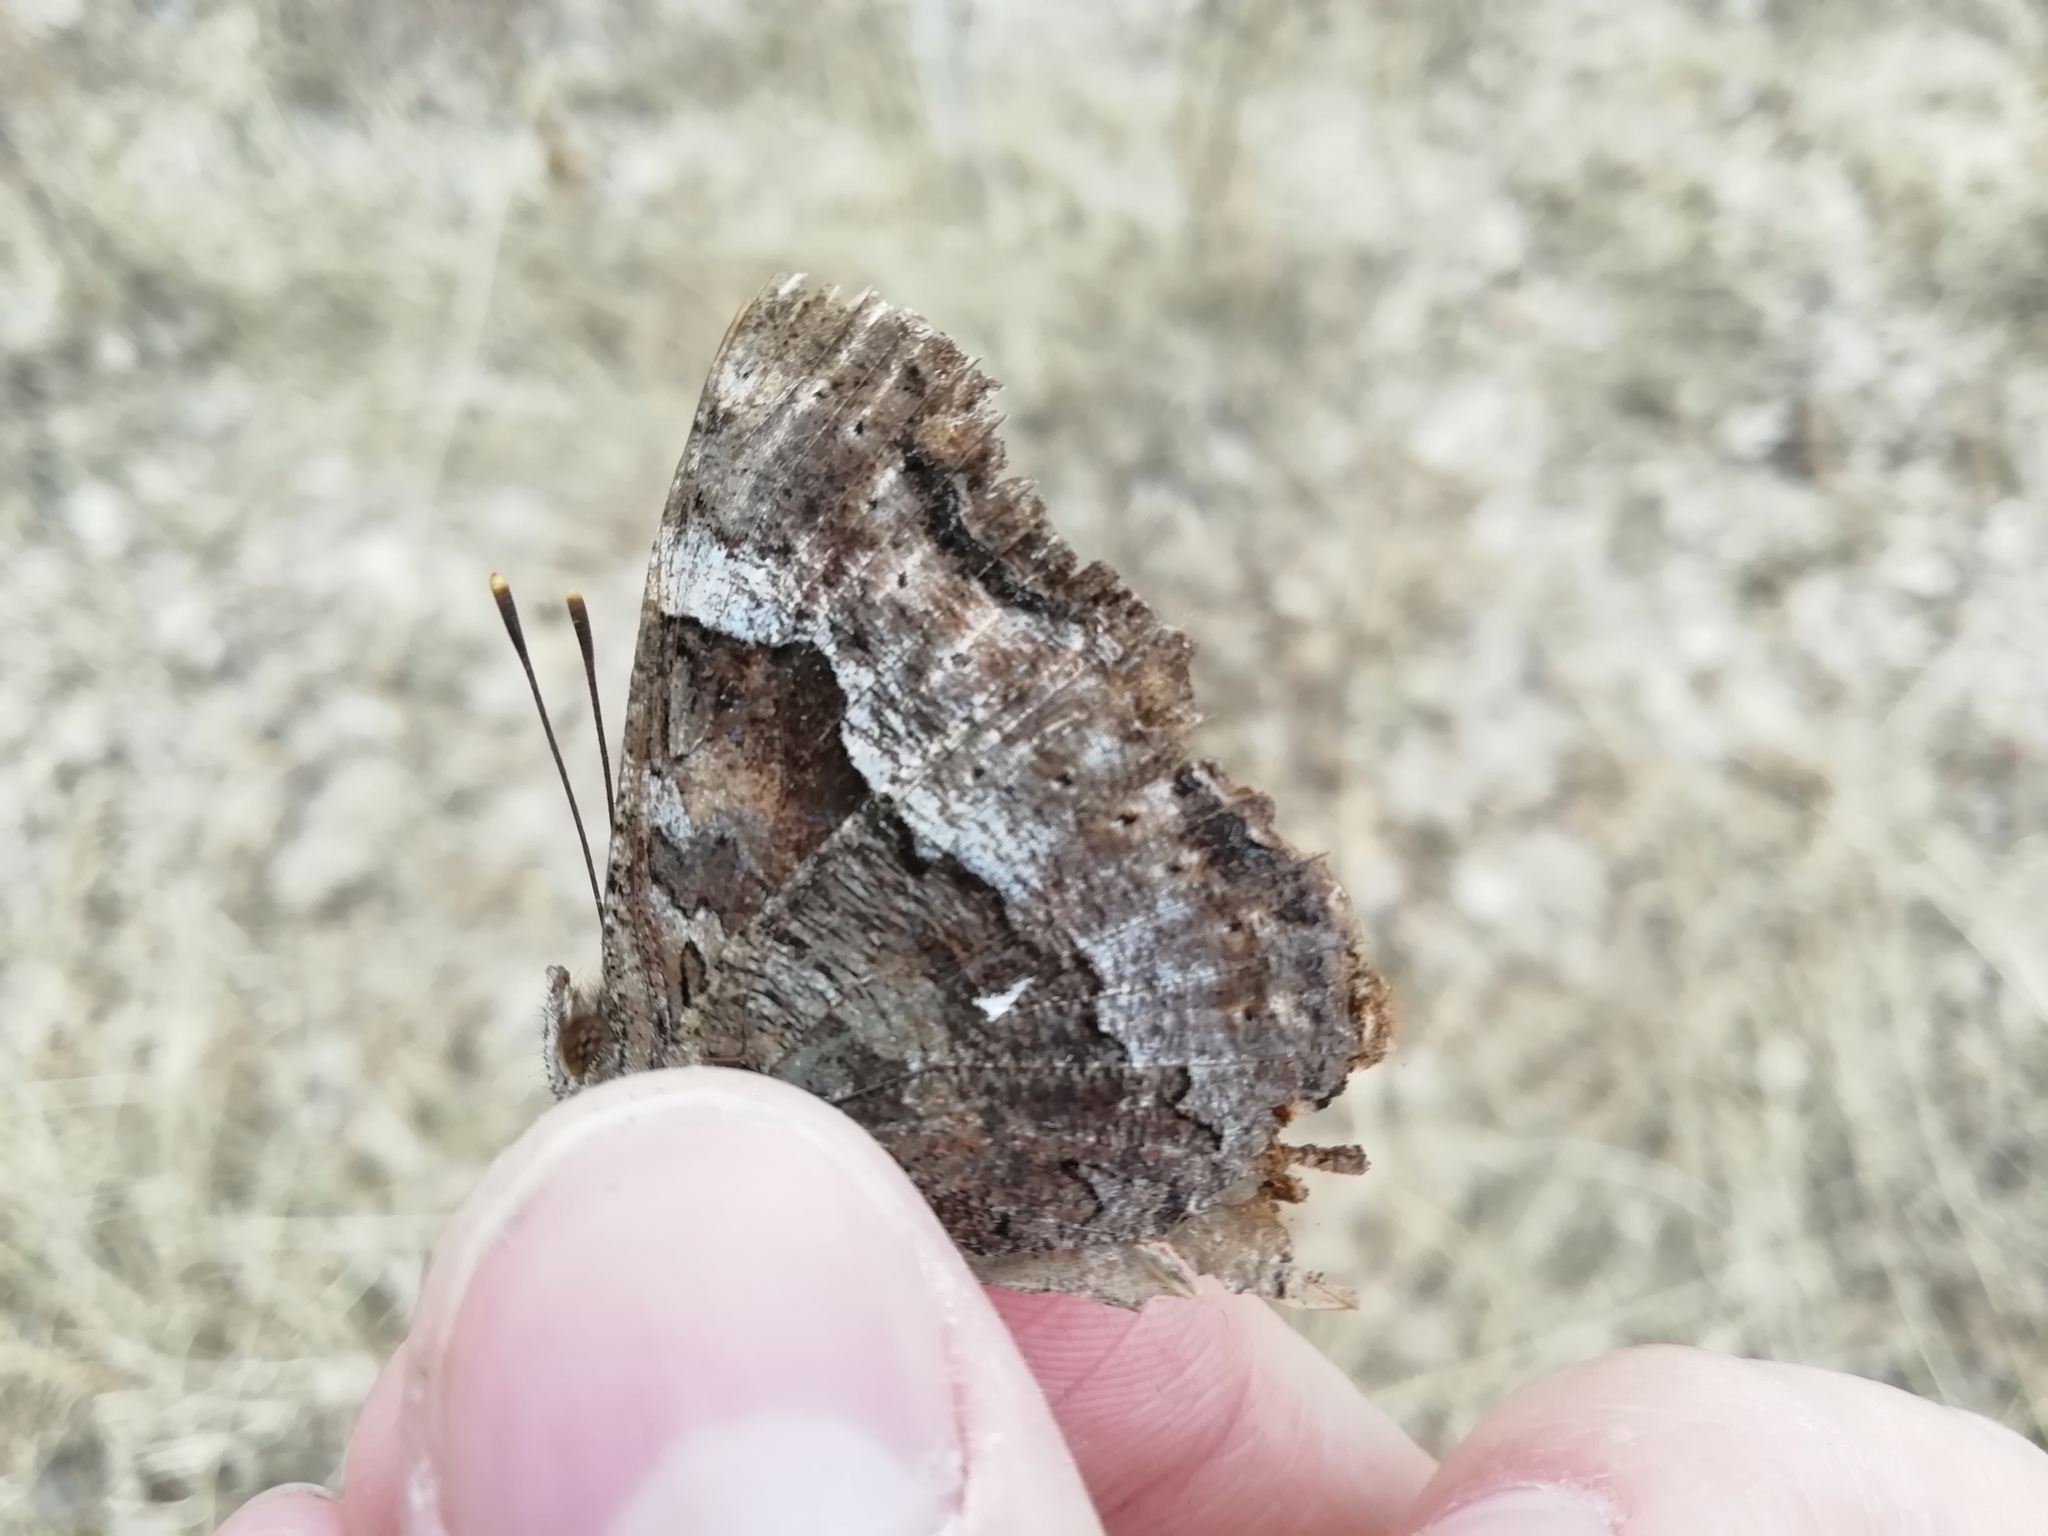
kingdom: Animalia
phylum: Arthropoda
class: Insecta
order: Lepidoptera
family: Nymphalidae
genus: Polygonia
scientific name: Polygonia vaualbum
